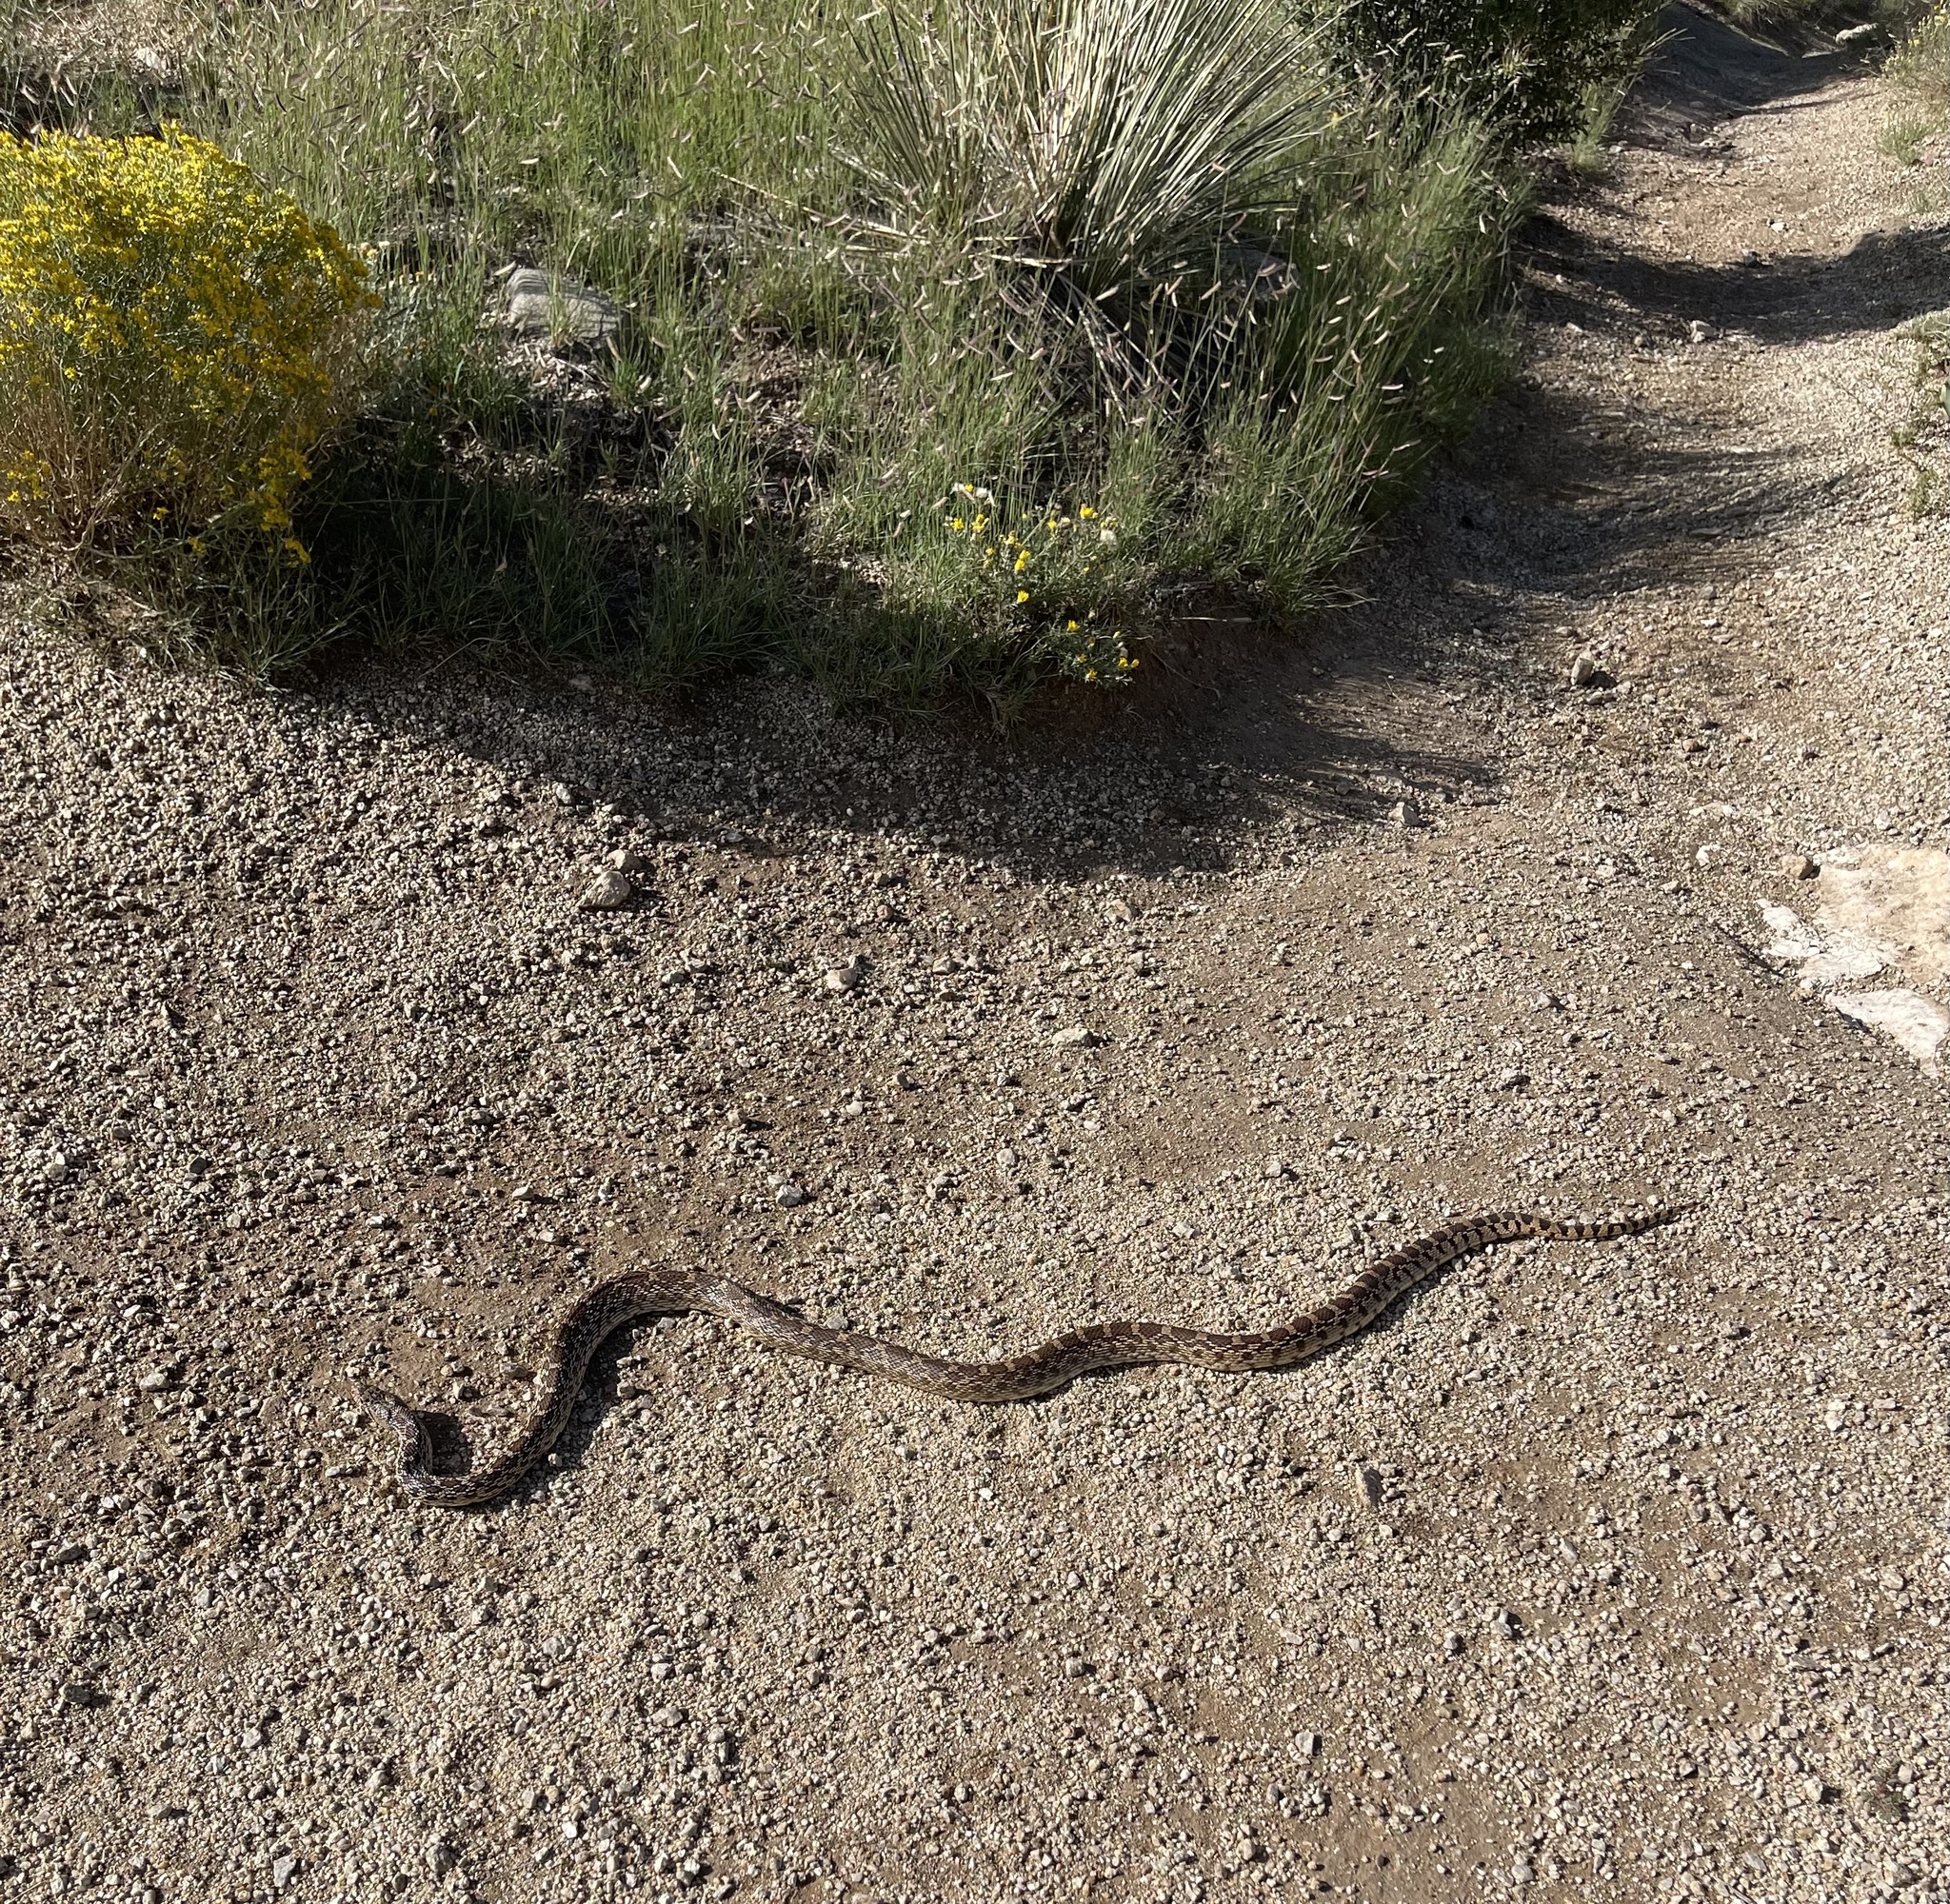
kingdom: Animalia
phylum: Chordata
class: Squamata
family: Colubridae
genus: Pituophis
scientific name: Pituophis catenifer
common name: Gopher snake
